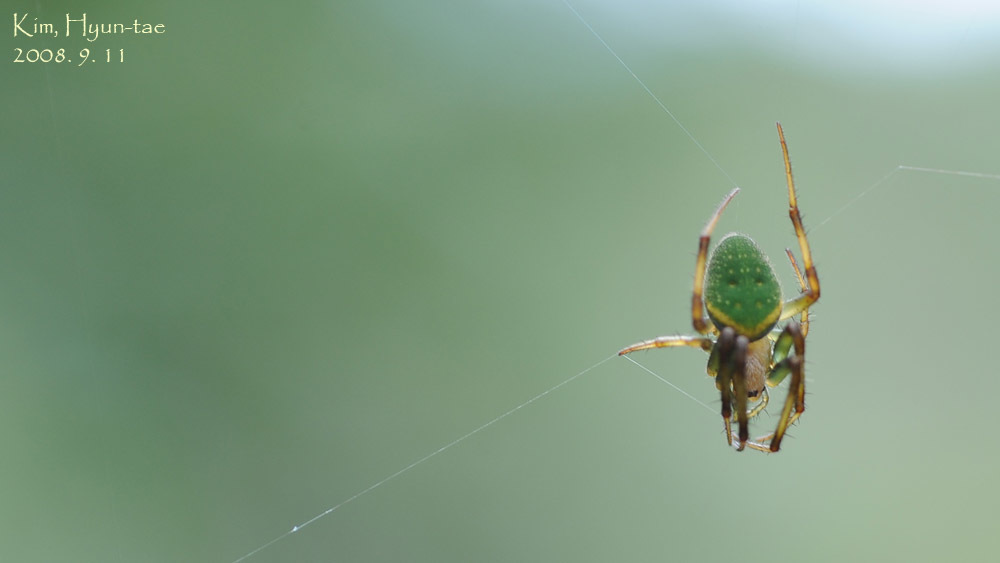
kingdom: Animalia
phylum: Arthropoda
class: Arachnida
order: Araneae
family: Araneidae
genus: Neoscona
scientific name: Neoscona scylloides
